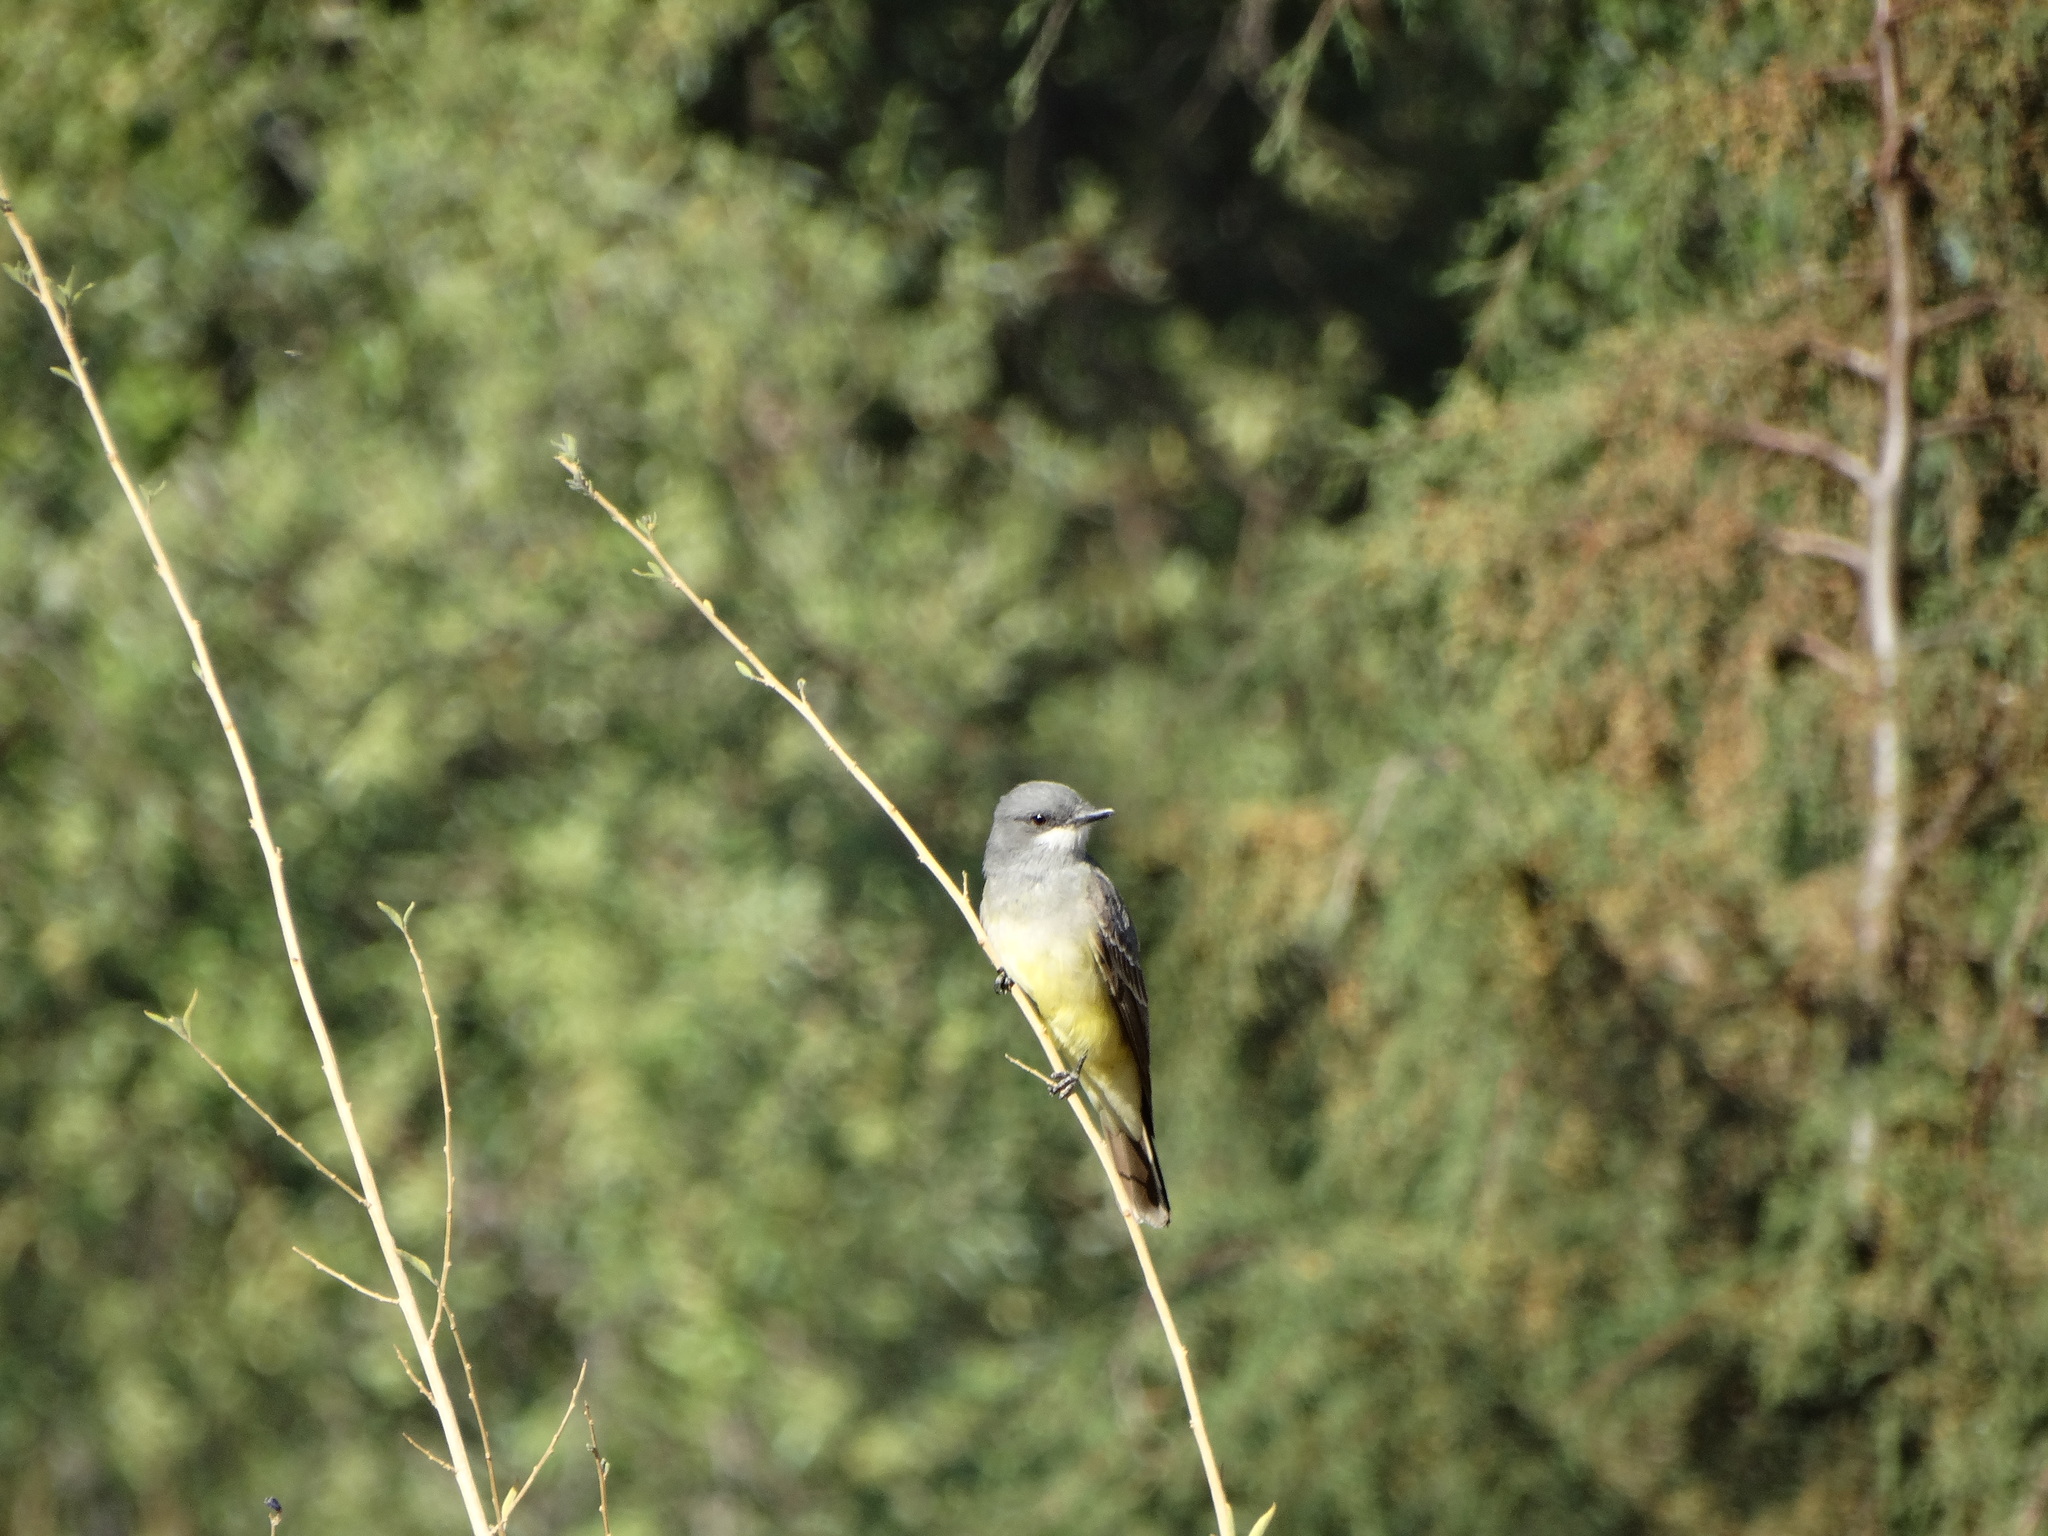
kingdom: Animalia
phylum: Chordata
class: Aves
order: Passeriformes
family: Tyrannidae
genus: Tyrannus
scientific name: Tyrannus vociferans
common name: Cassin's kingbird
